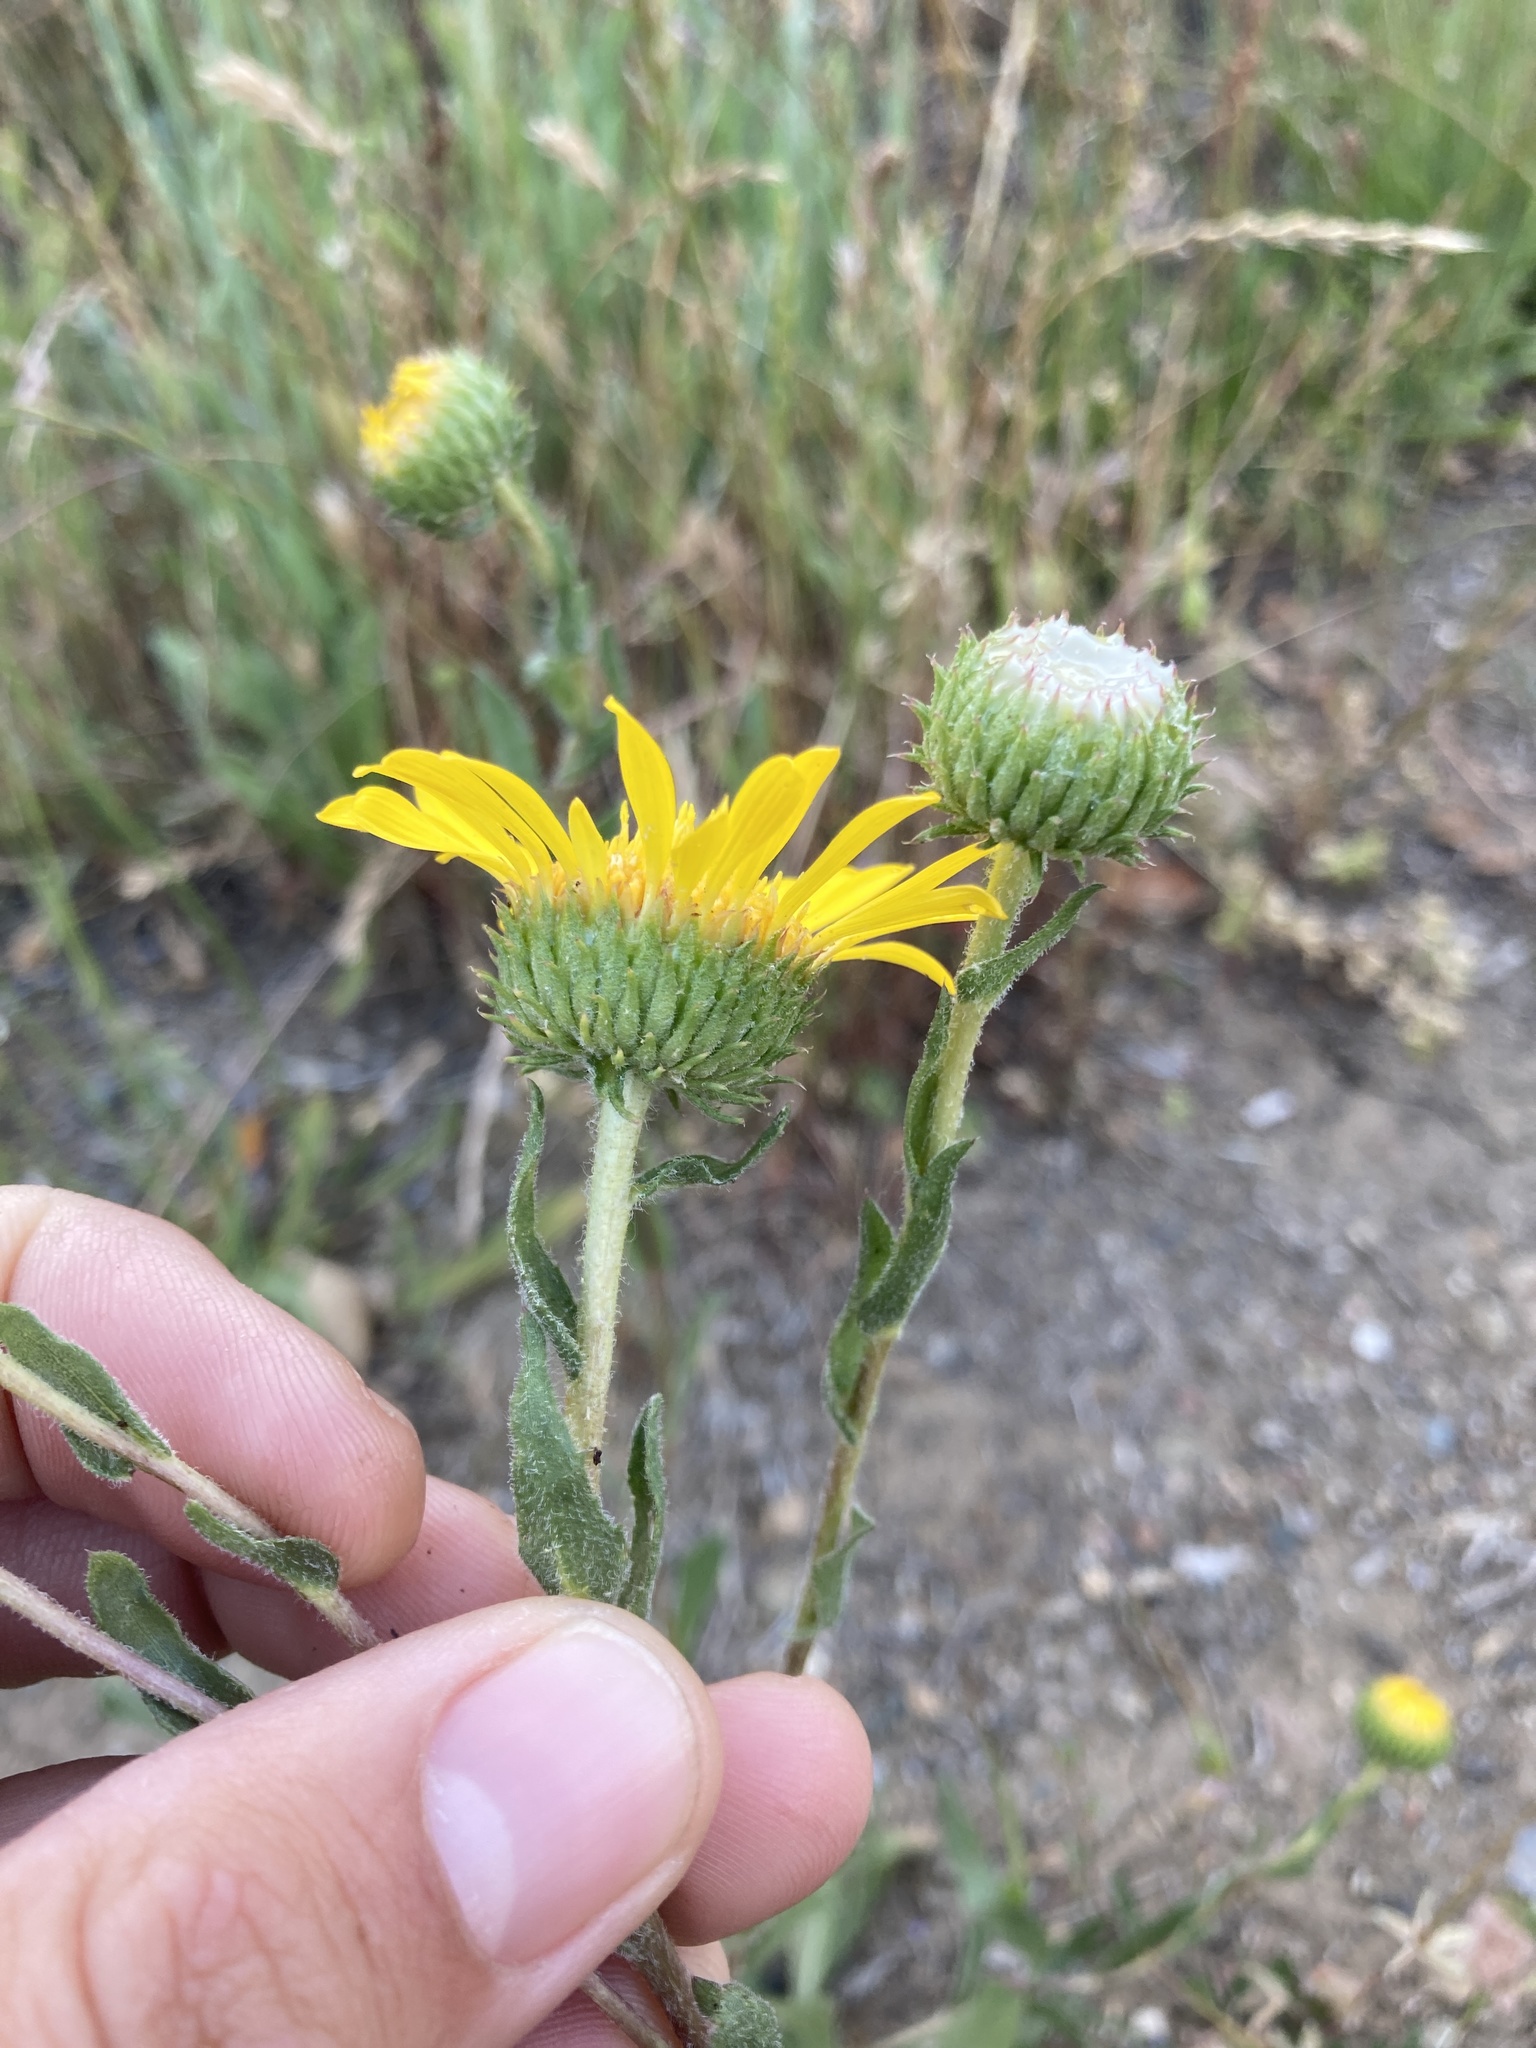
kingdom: Plantae
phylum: Tracheophyta
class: Magnoliopsida
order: Asterales
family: Asteraceae
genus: Grindelia
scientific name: Grindelia hirsutula
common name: Hairy gumweed
